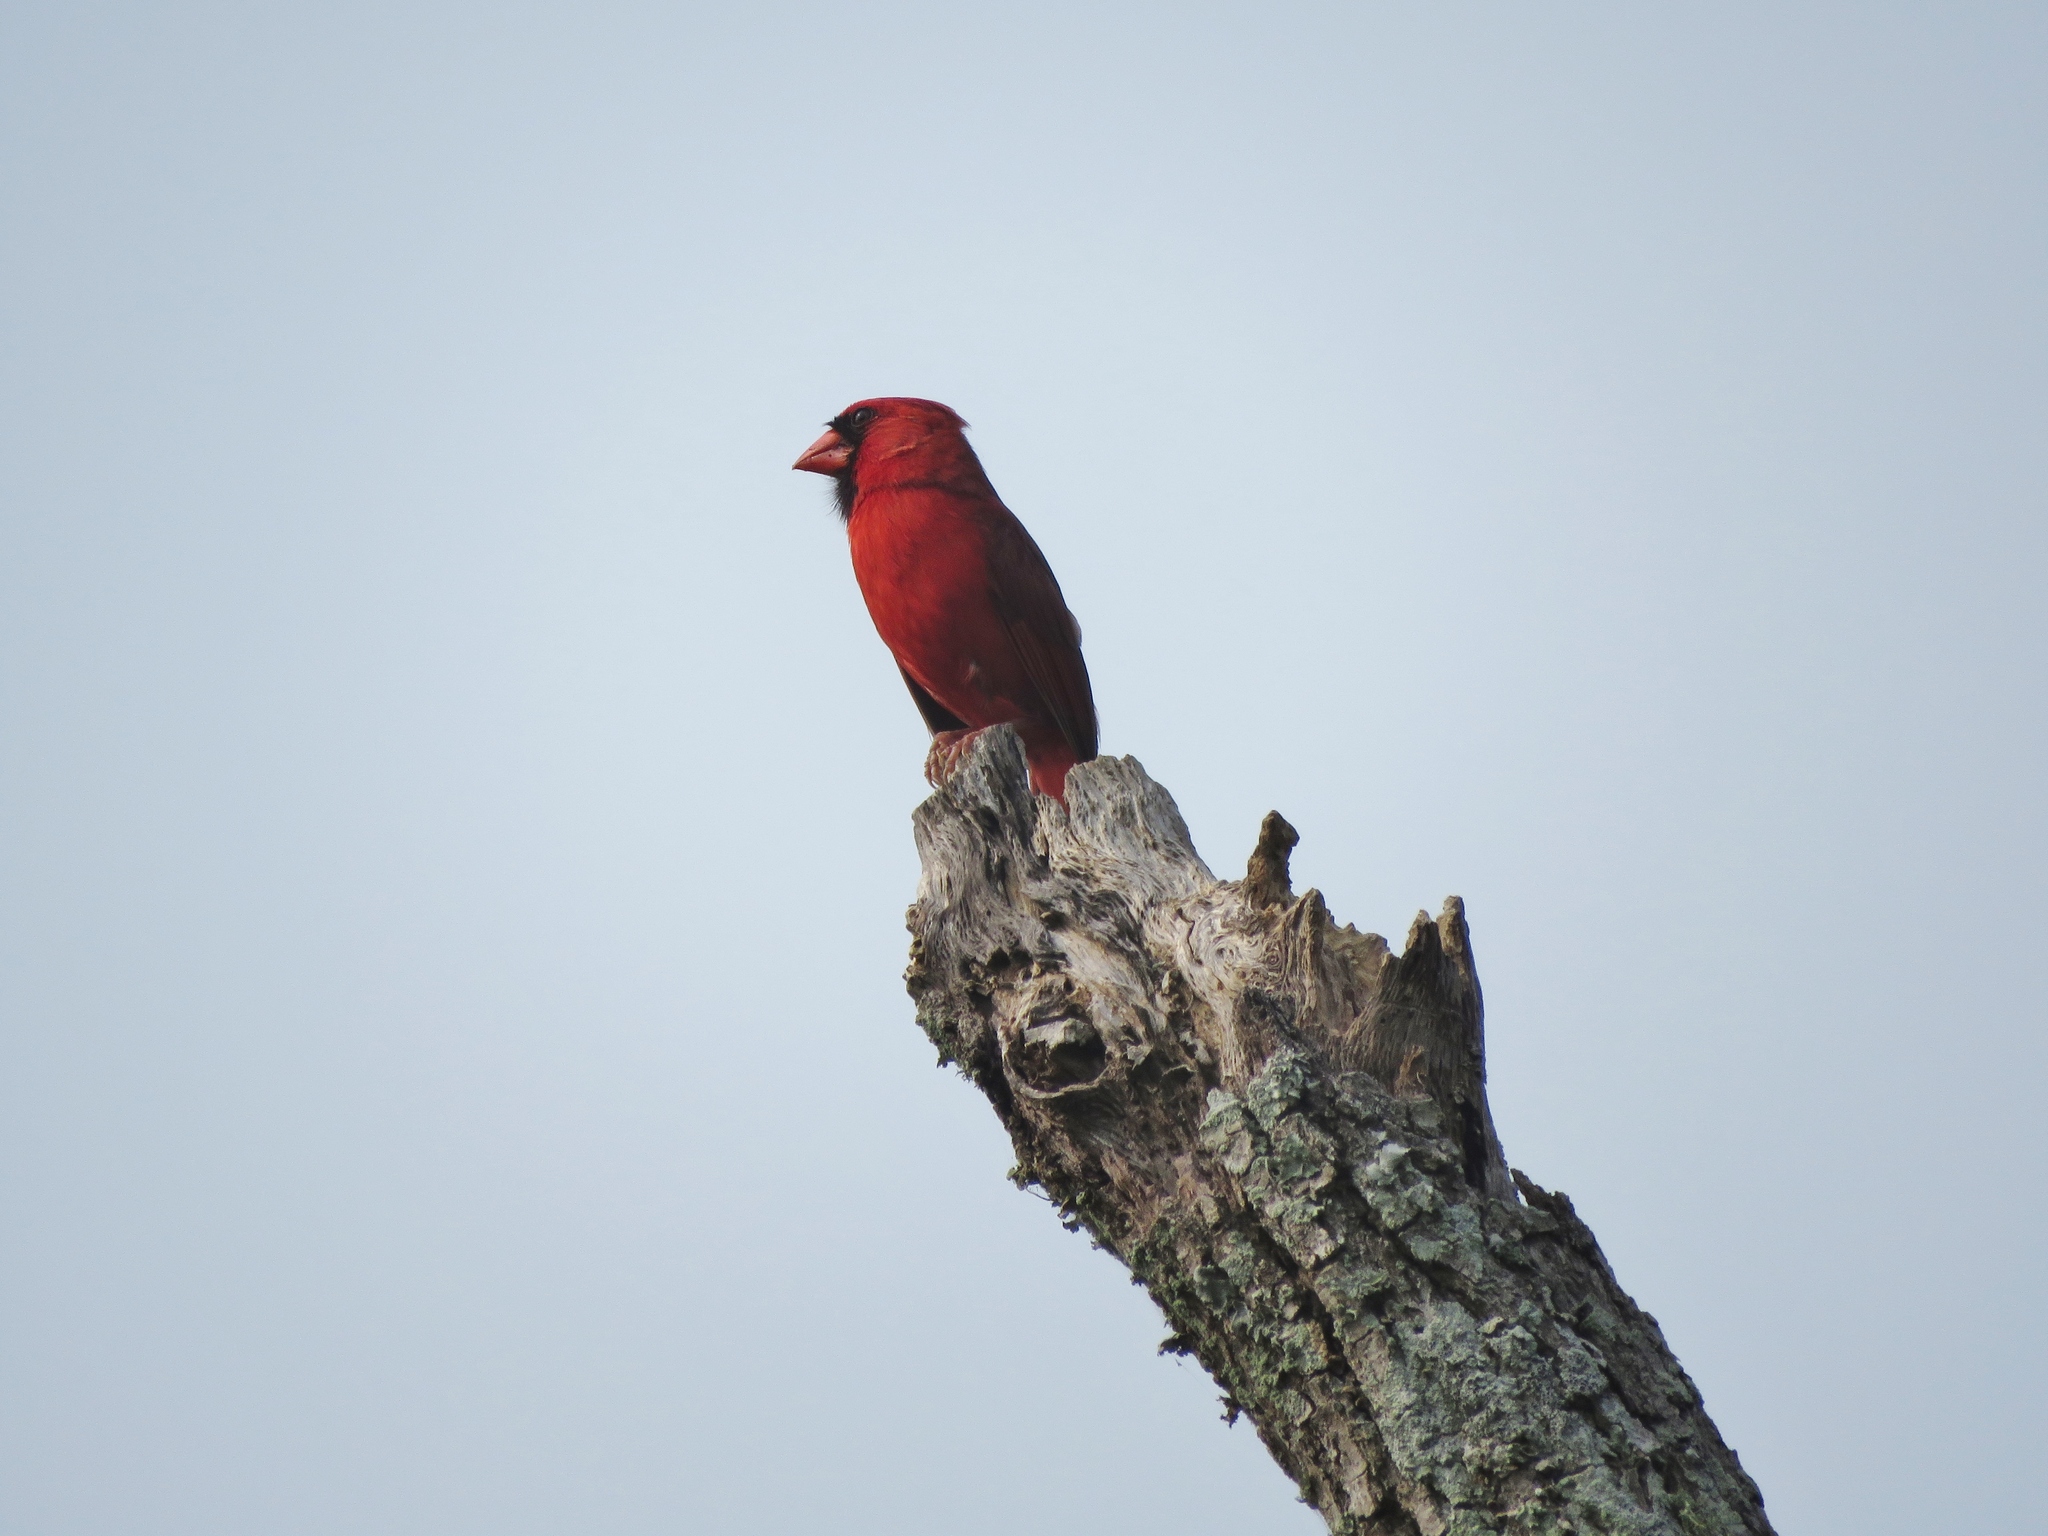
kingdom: Animalia
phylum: Chordata
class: Aves
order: Passeriformes
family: Cardinalidae
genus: Cardinalis
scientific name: Cardinalis cardinalis
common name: Northern cardinal
